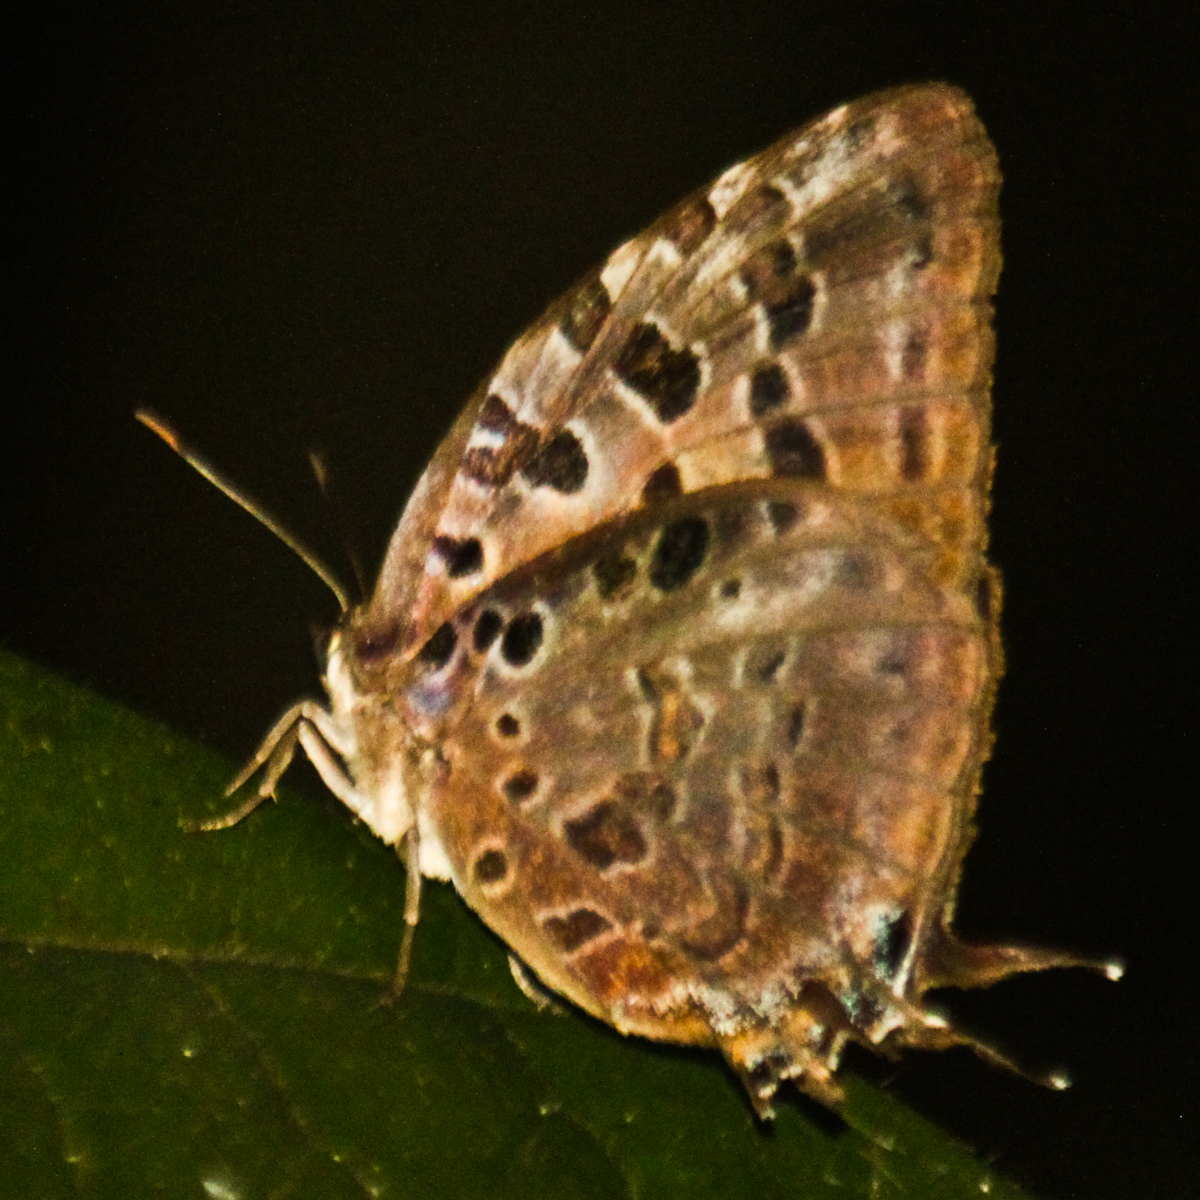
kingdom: Animalia
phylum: Arthropoda
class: Insecta
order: Lepidoptera
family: Lycaenidae
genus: Arhopala
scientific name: Arhopala anthelus
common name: Bushblue
